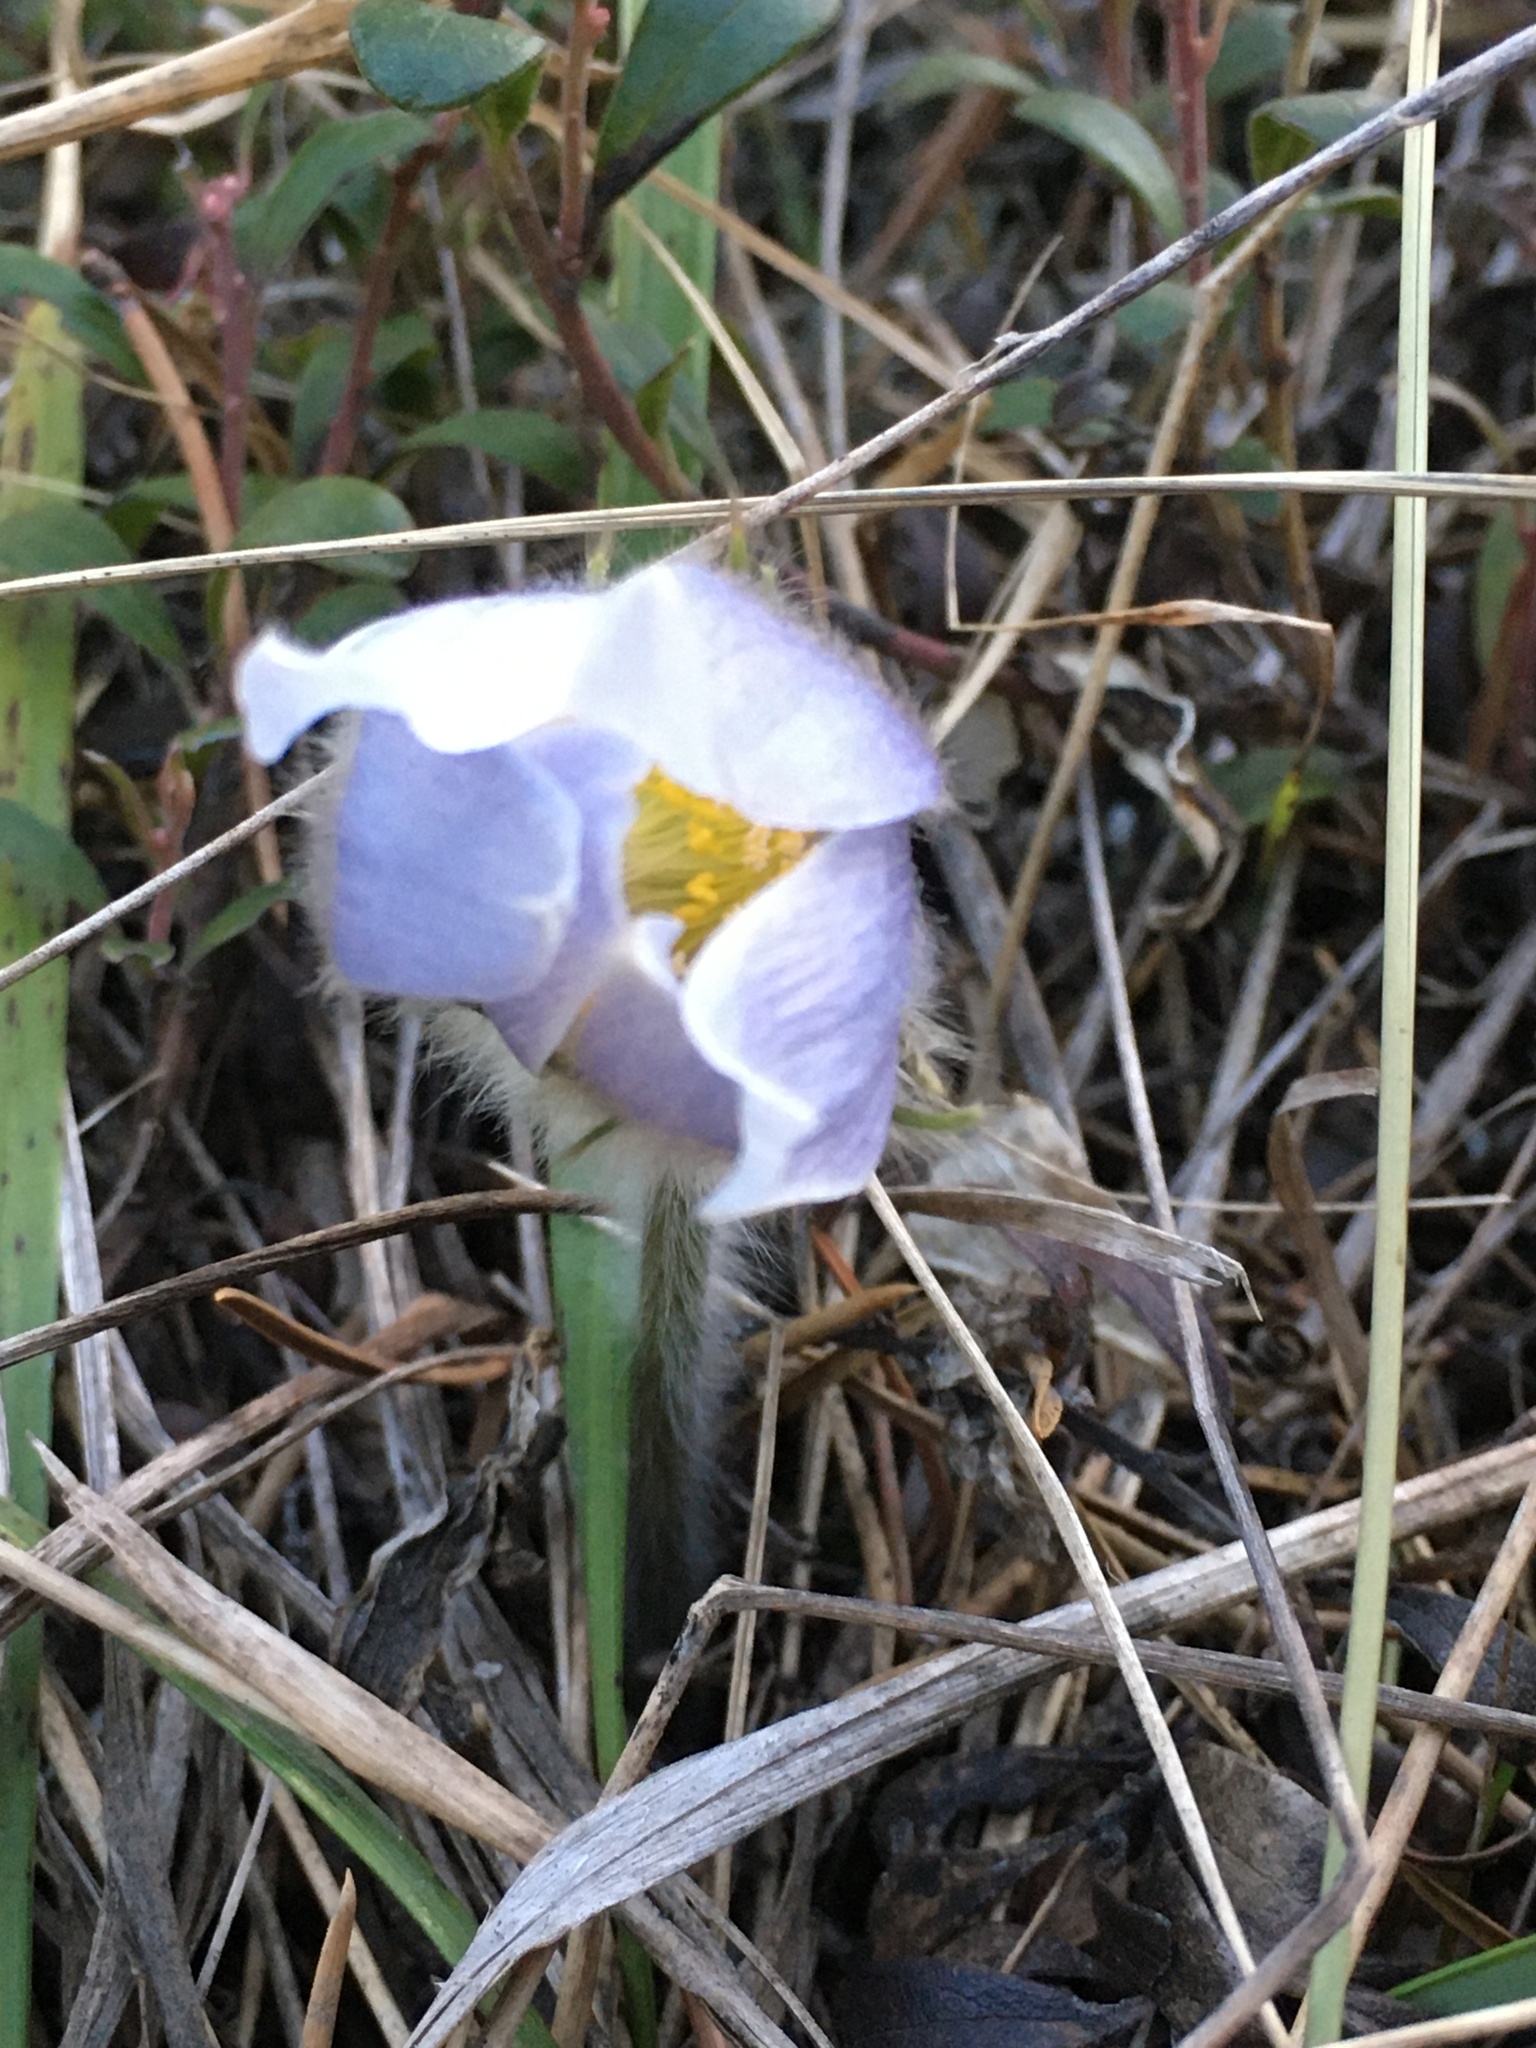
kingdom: Plantae
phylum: Tracheophyta
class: Magnoliopsida
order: Ranunculales
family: Ranunculaceae
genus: Pulsatilla
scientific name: Pulsatilla nuttalliana
